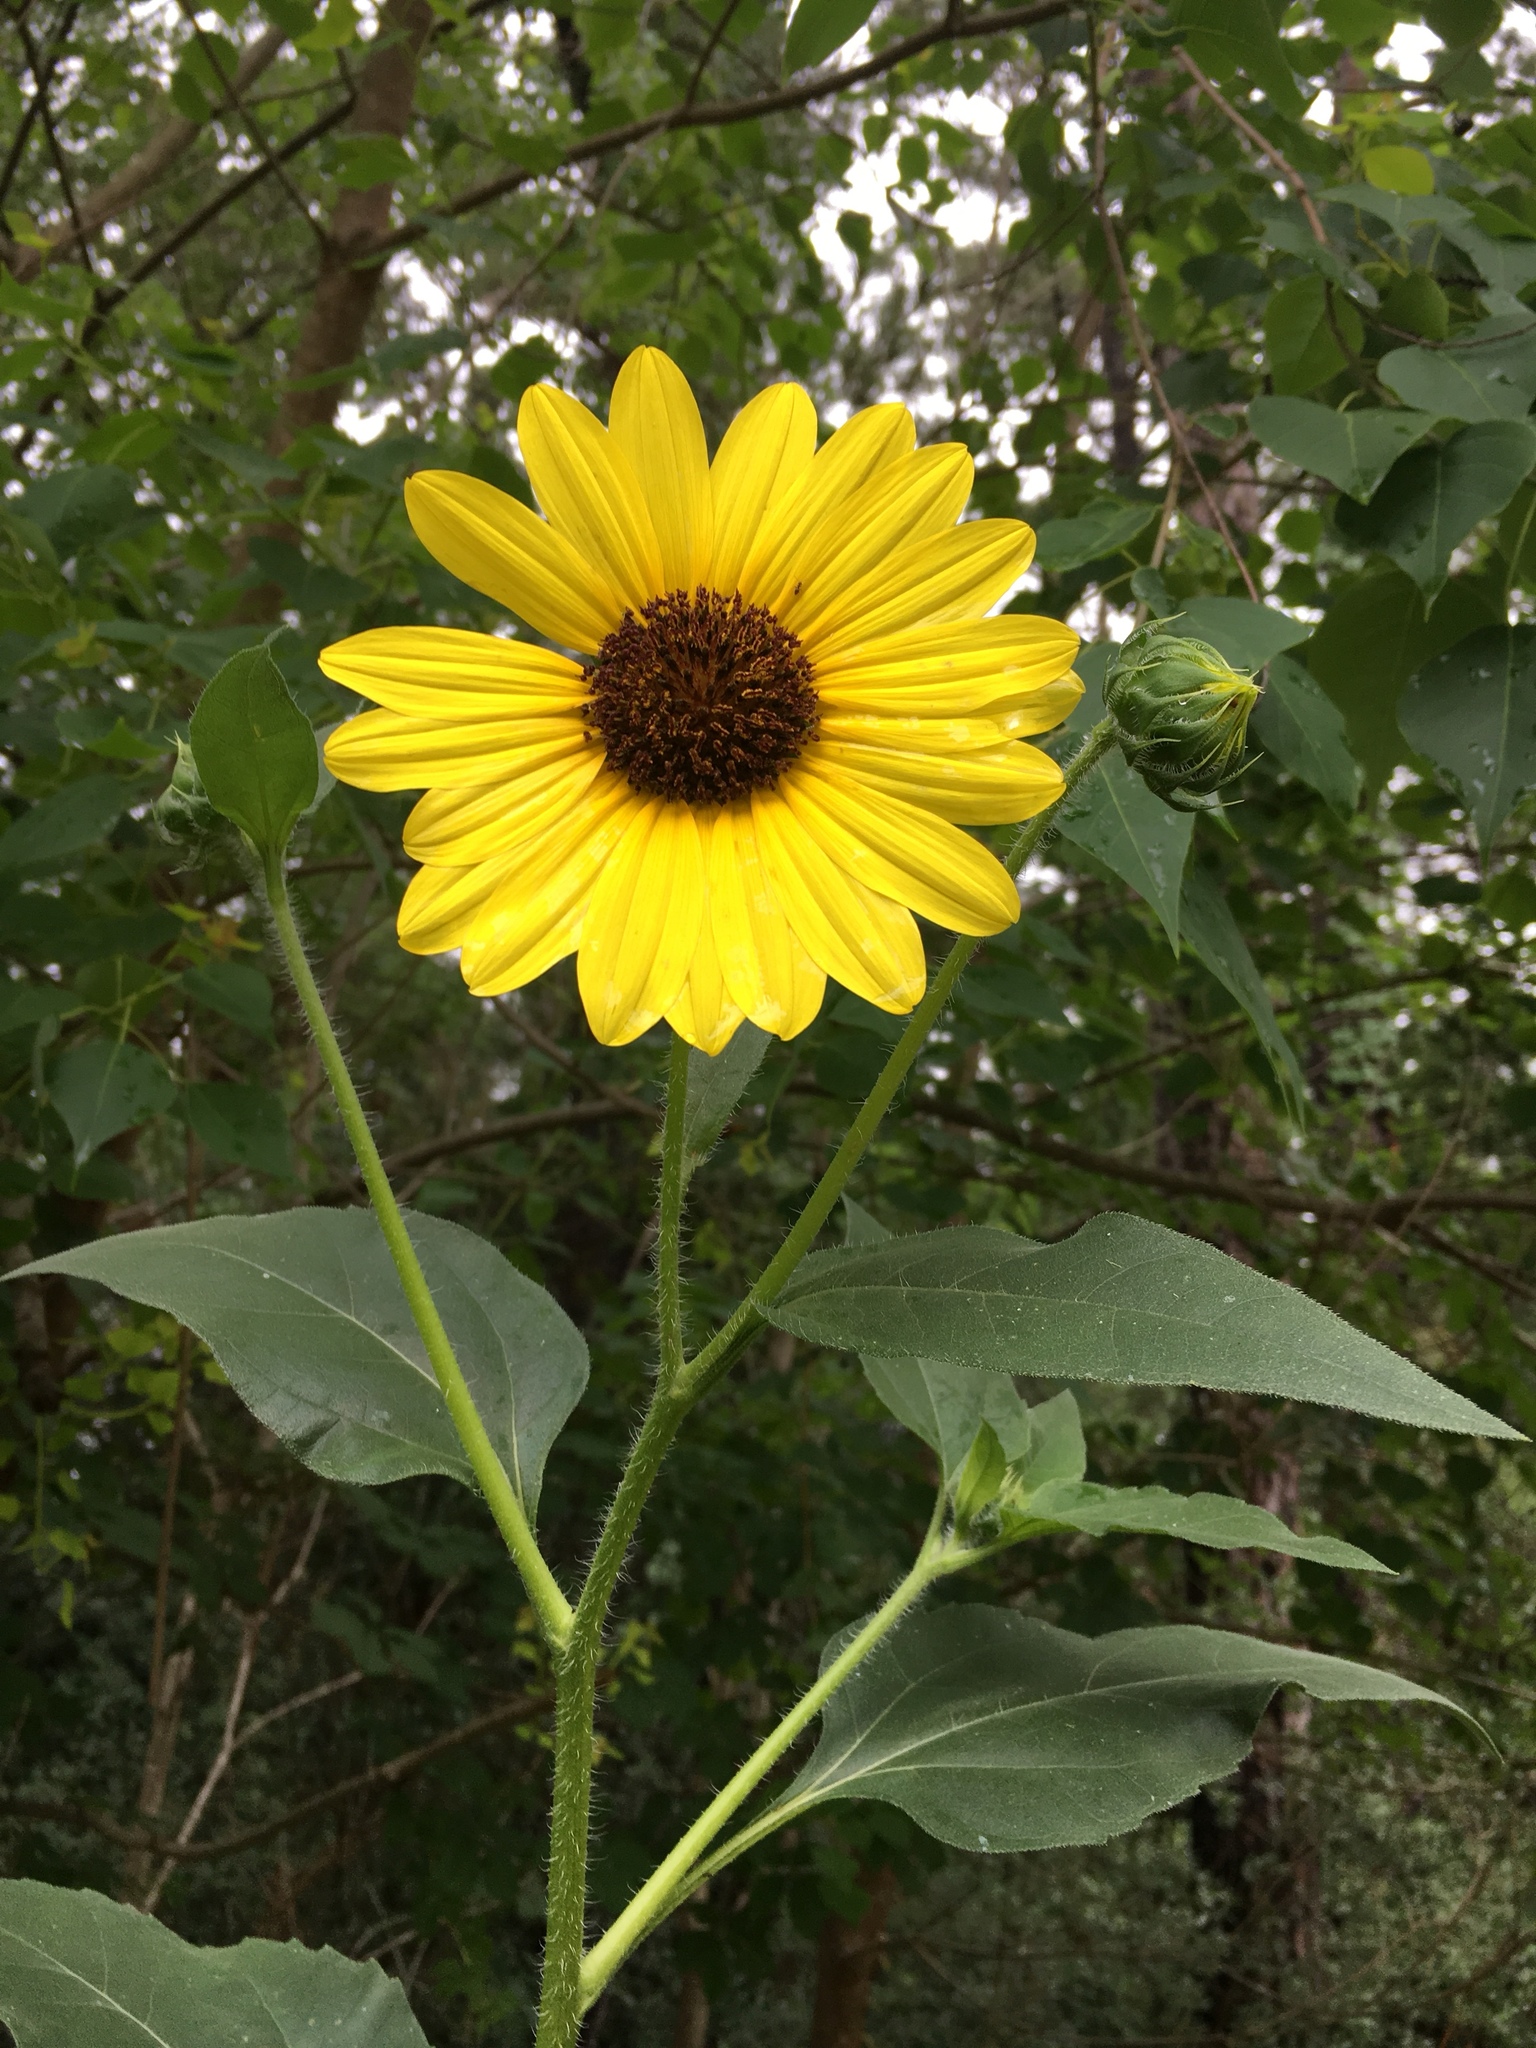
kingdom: Plantae
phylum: Tracheophyta
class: Magnoliopsida
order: Asterales
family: Asteraceae
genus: Helianthus
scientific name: Helianthus annuus
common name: Sunflower
